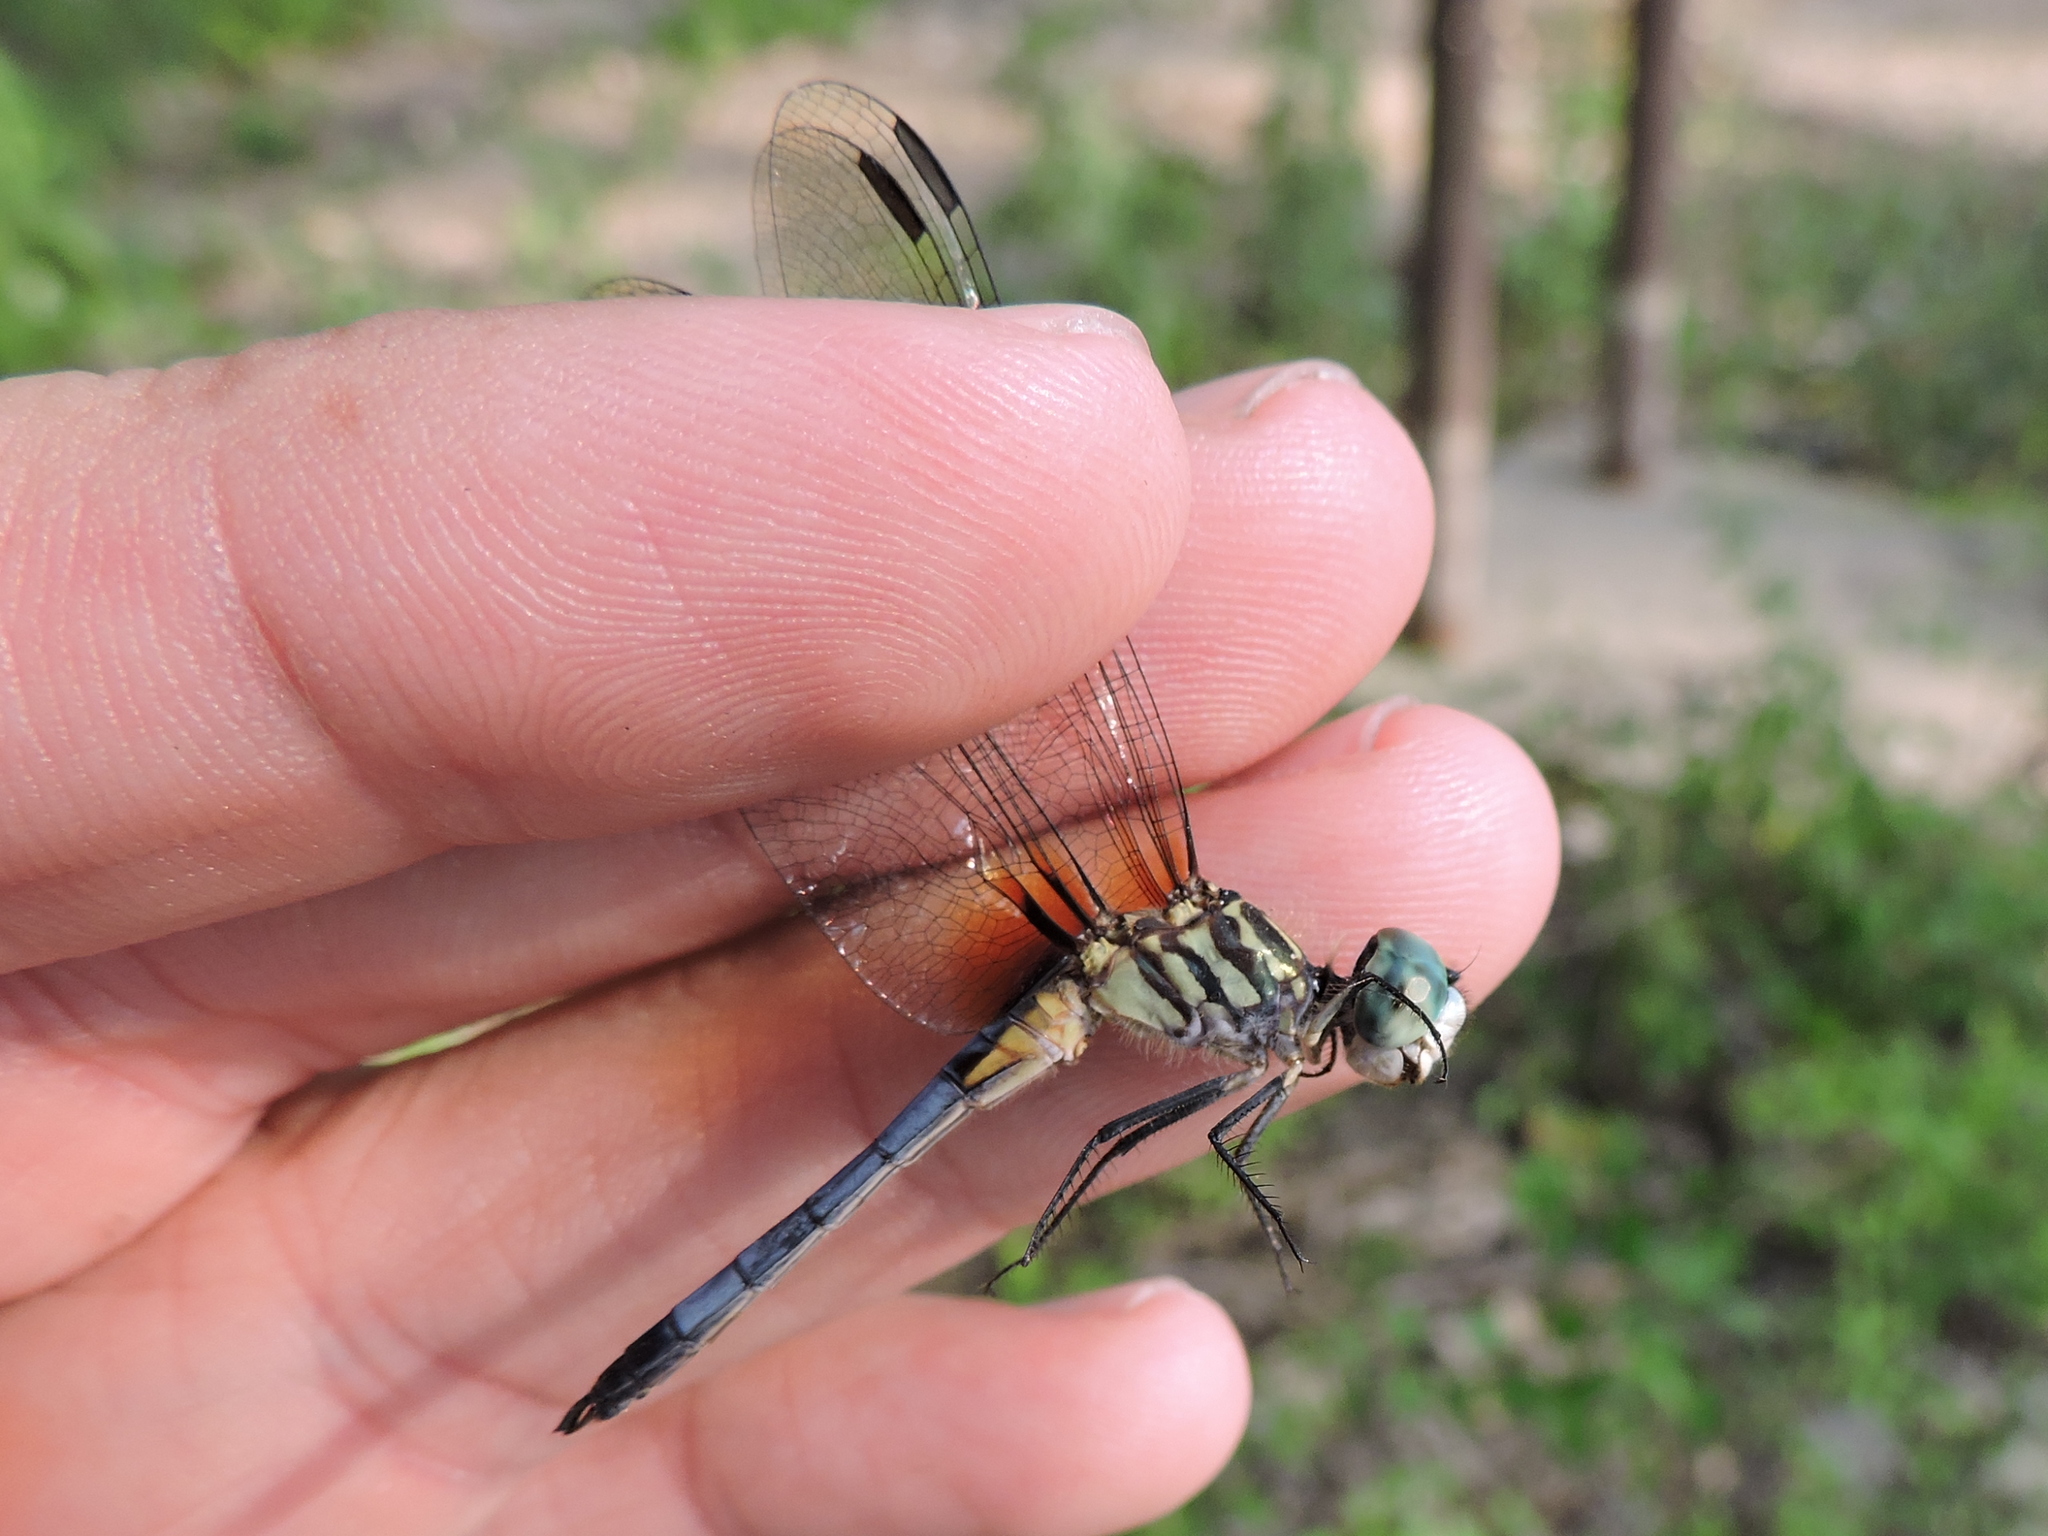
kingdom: Animalia
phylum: Arthropoda
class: Insecta
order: Odonata
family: Libellulidae
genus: Pachydiplax
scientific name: Pachydiplax longipennis
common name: Blue dasher
